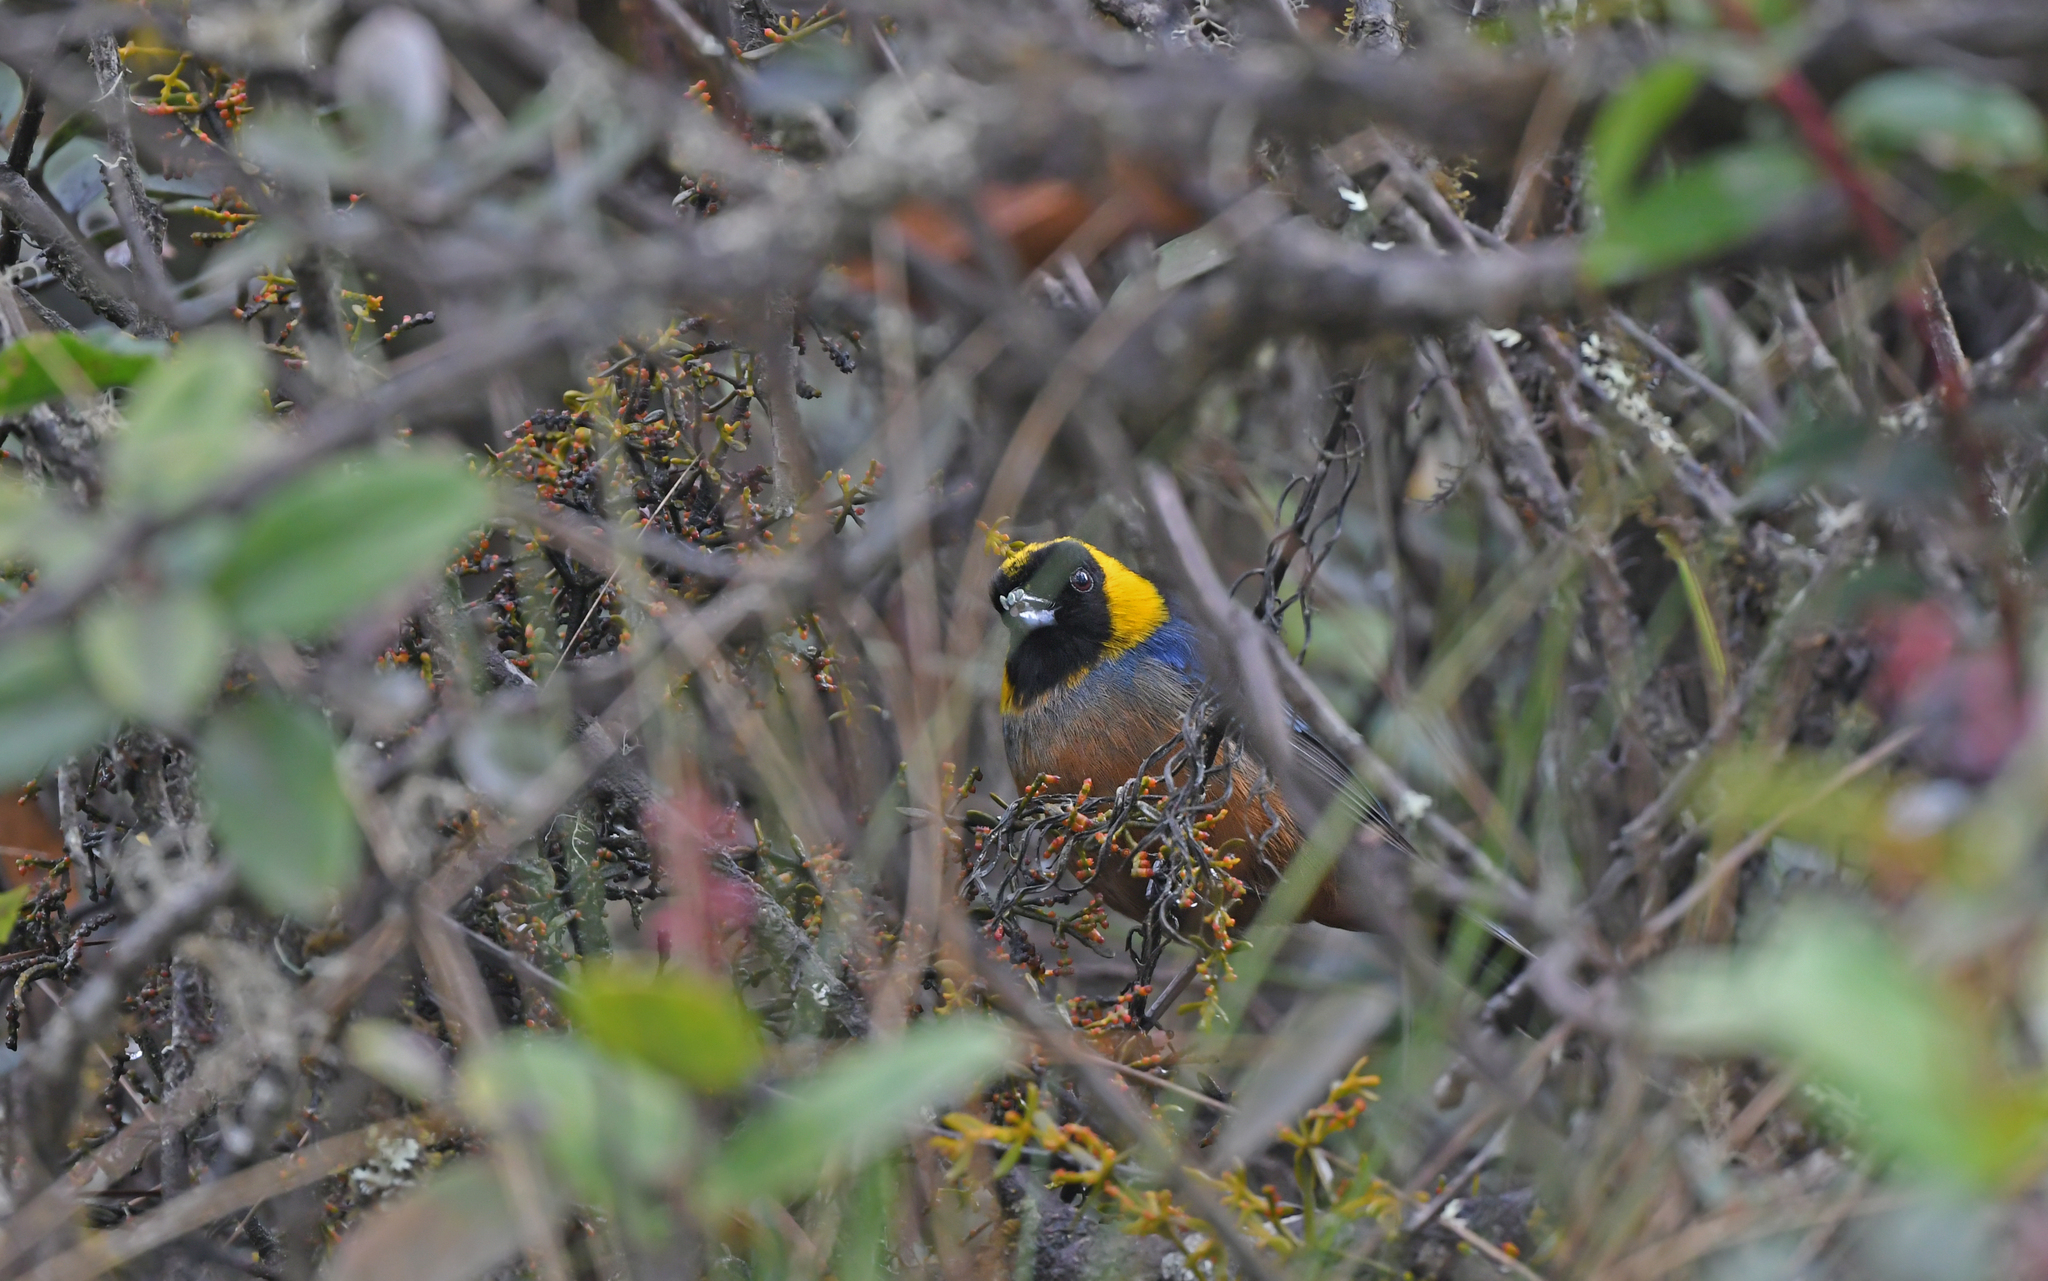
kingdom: Animalia
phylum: Chordata
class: Aves
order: Passeriformes
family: Thraupidae
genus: Iridosornis
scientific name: Iridosornis jelskii
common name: Golden-collared tanager
